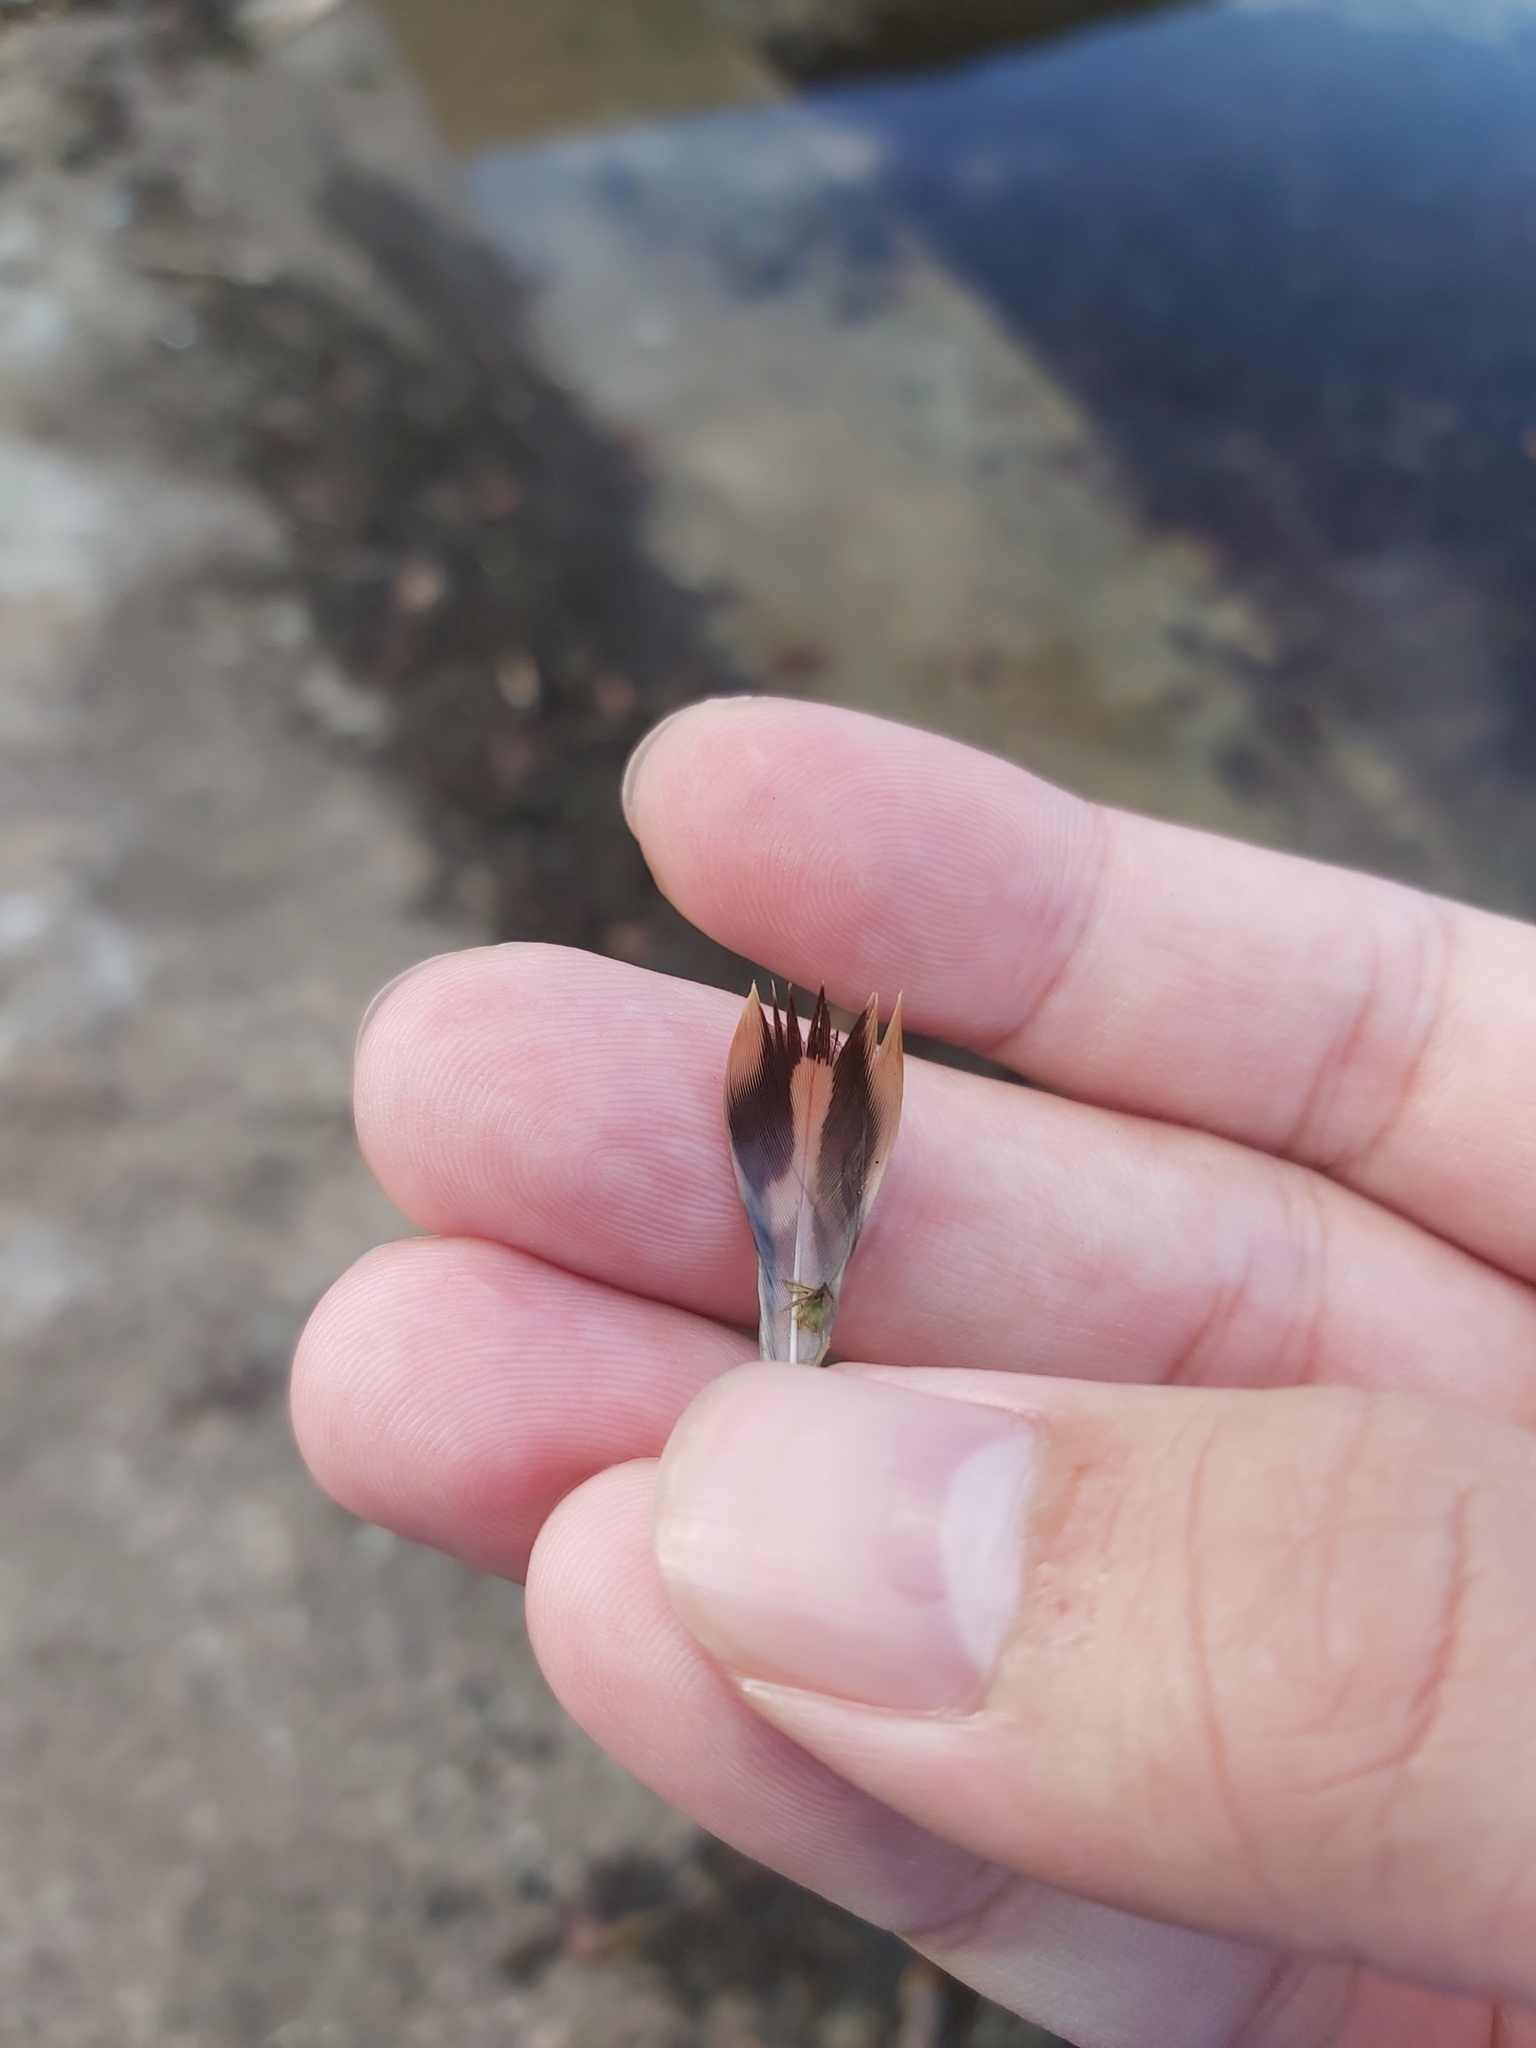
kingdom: Animalia
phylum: Chordata
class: Aves
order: Anseriformes
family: Anatidae
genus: Anas
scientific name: Anas platyrhynchos
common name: Mallard
